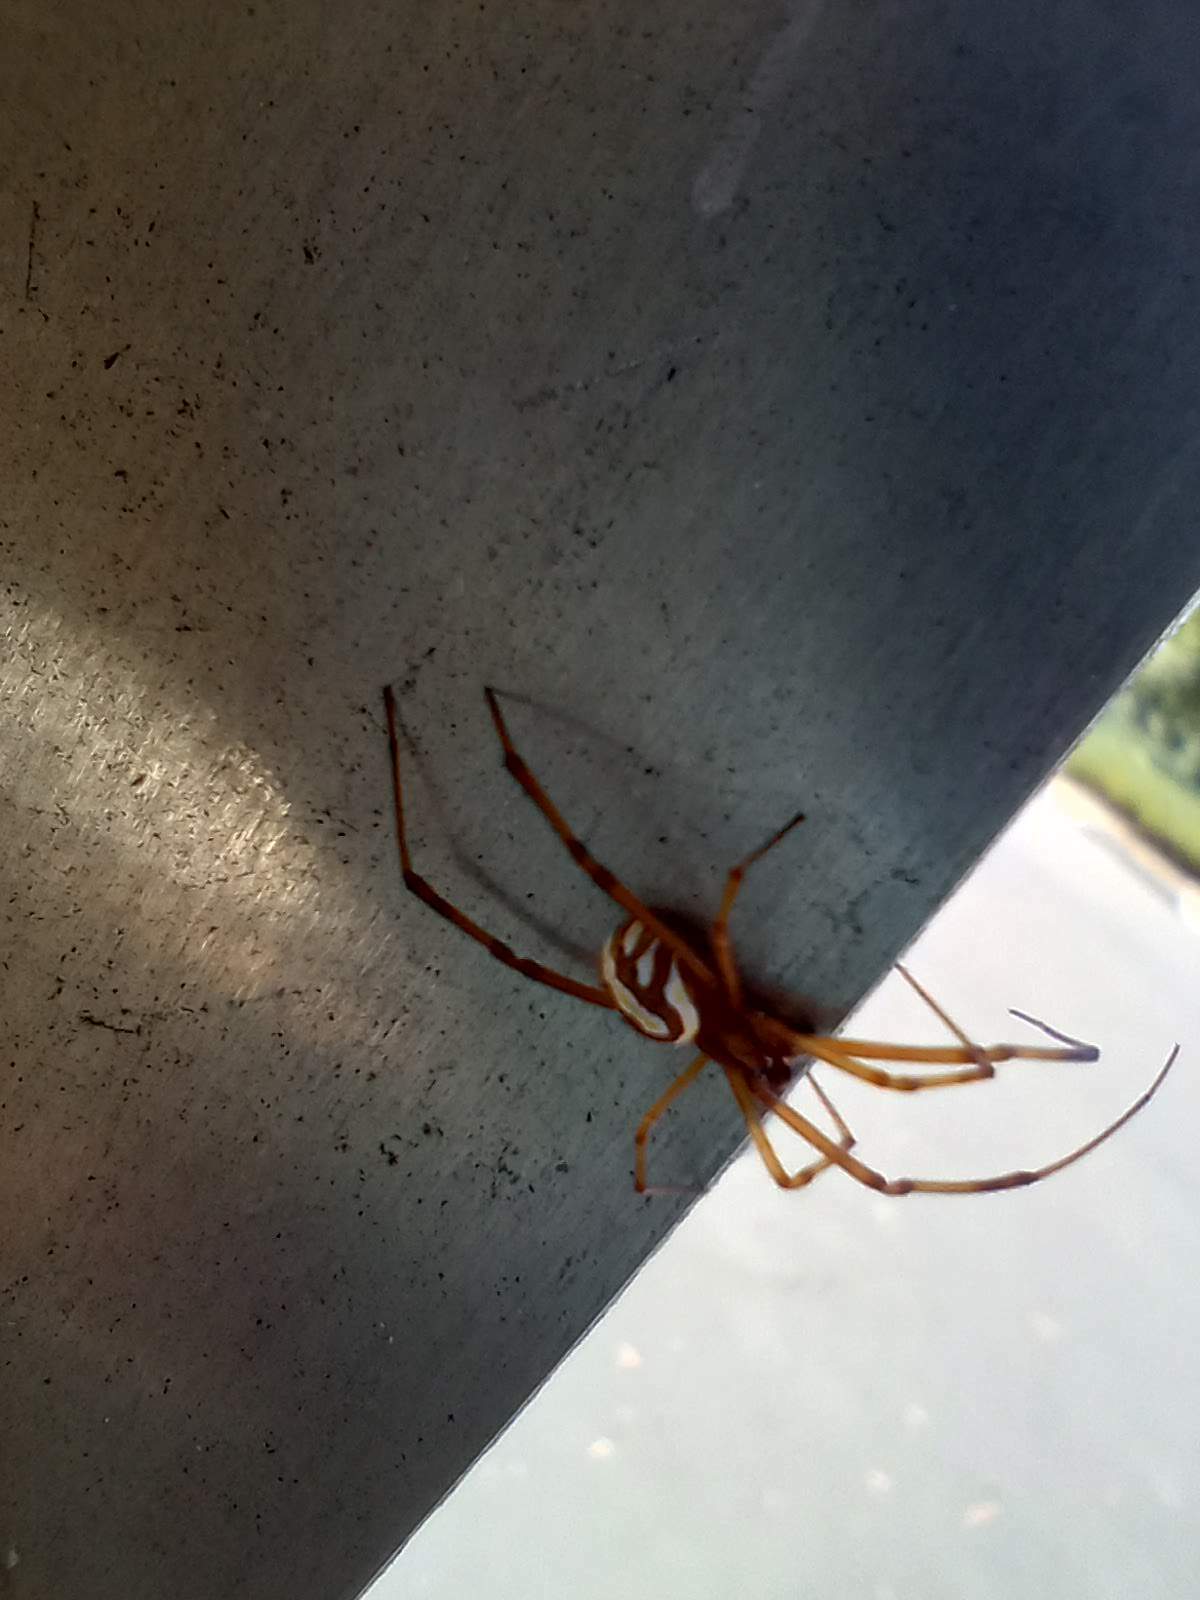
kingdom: Animalia
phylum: Arthropoda
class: Arachnida
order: Araneae
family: Theridiidae
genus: Latrodectus
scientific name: Latrodectus hesperus
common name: Western black widow
